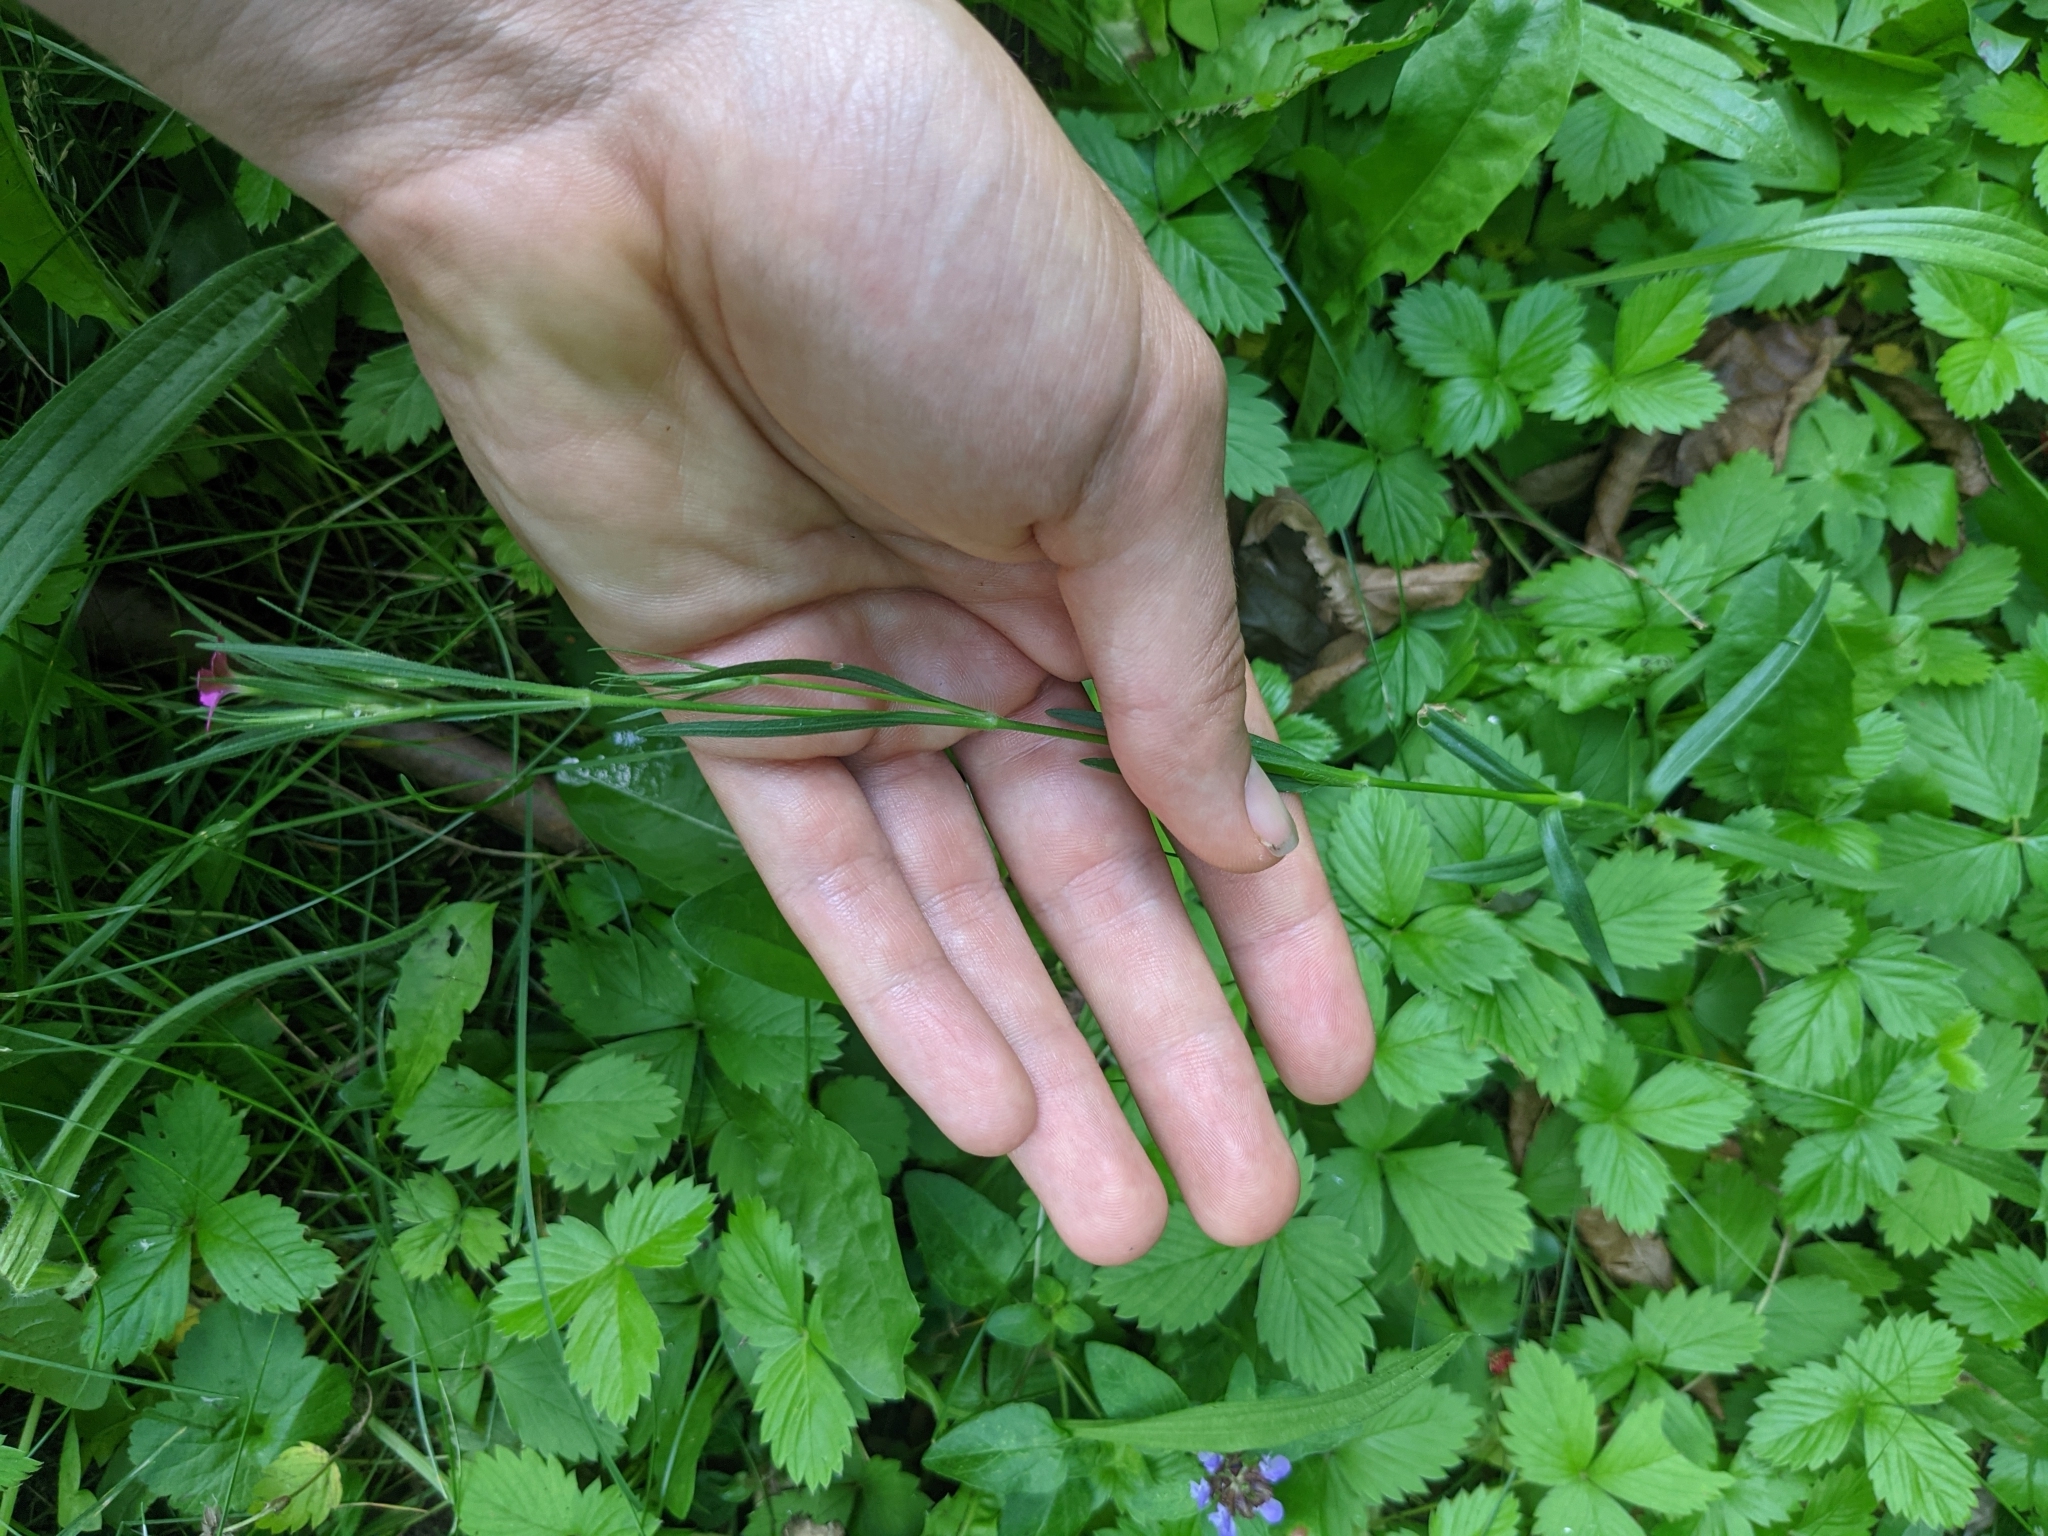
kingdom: Plantae
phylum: Tracheophyta
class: Magnoliopsida
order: Caryophyllales
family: Caryophyllaceae
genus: Dianthus
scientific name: Dianthus armeria
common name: Deptford pink
